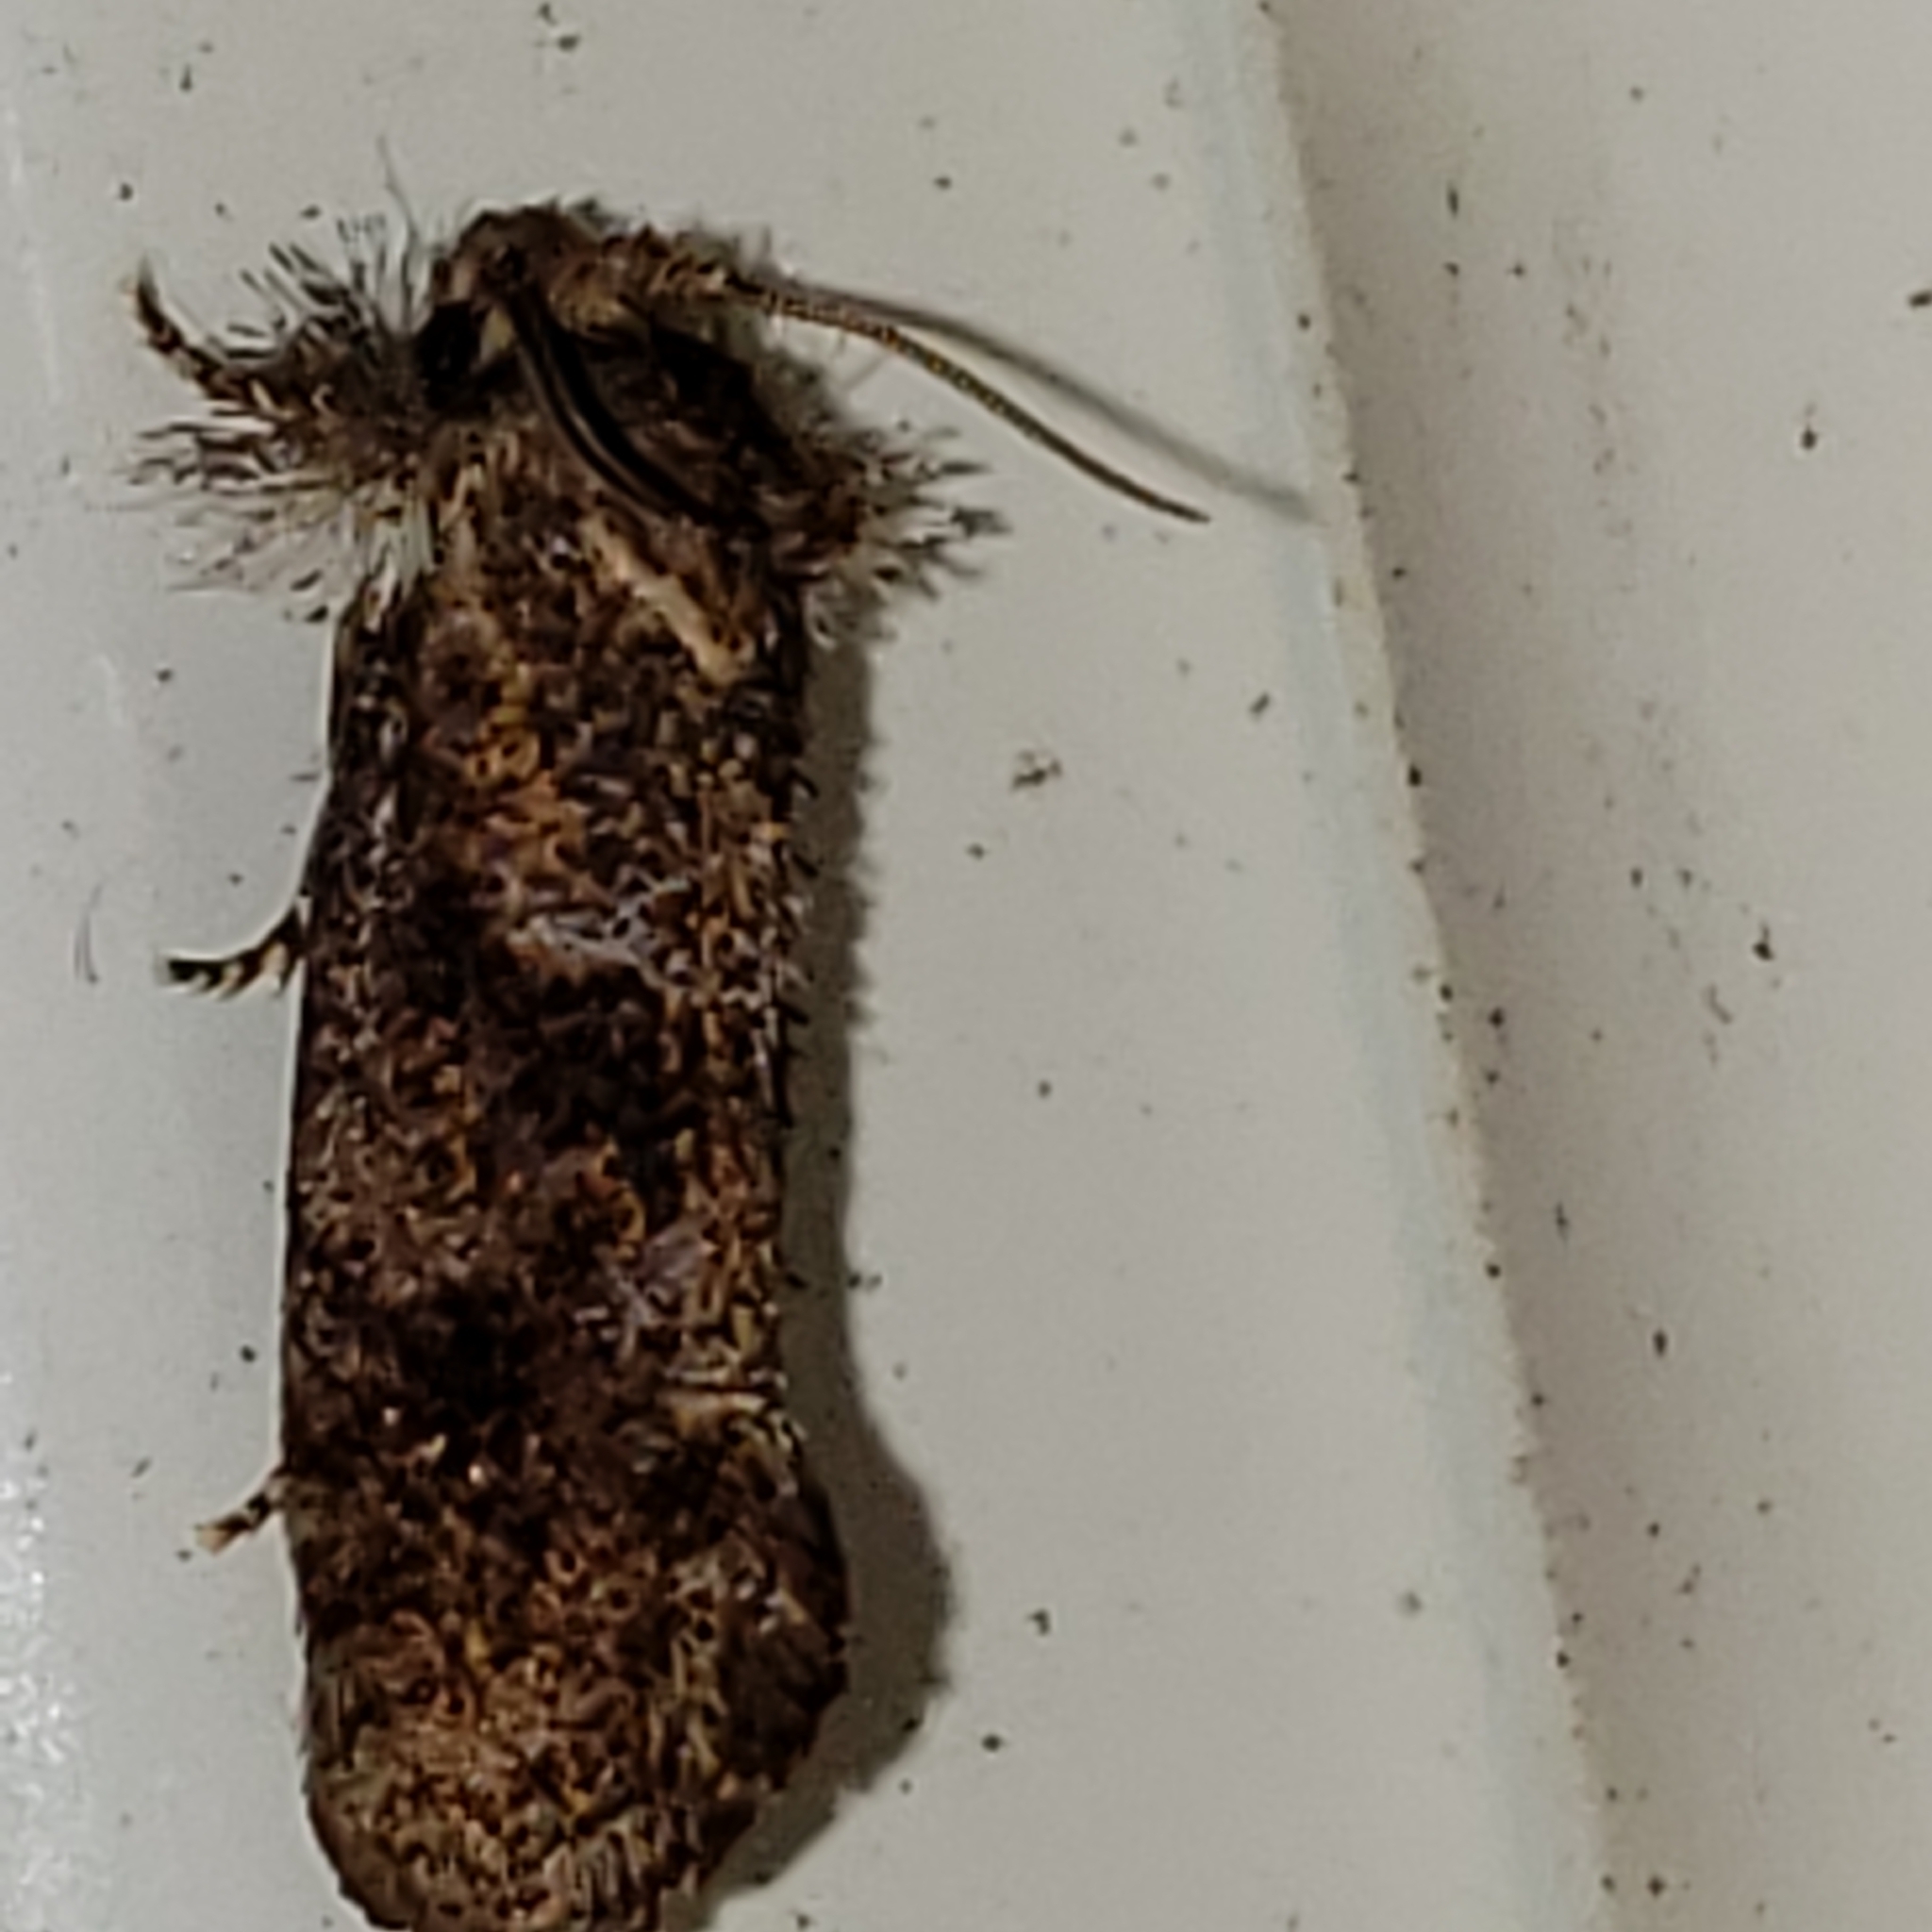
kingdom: Animalia
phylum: Arthropoda
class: Insecta
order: Lepidoptera
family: Tineidae
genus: Acrolophus
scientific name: Acrolophus panamae
